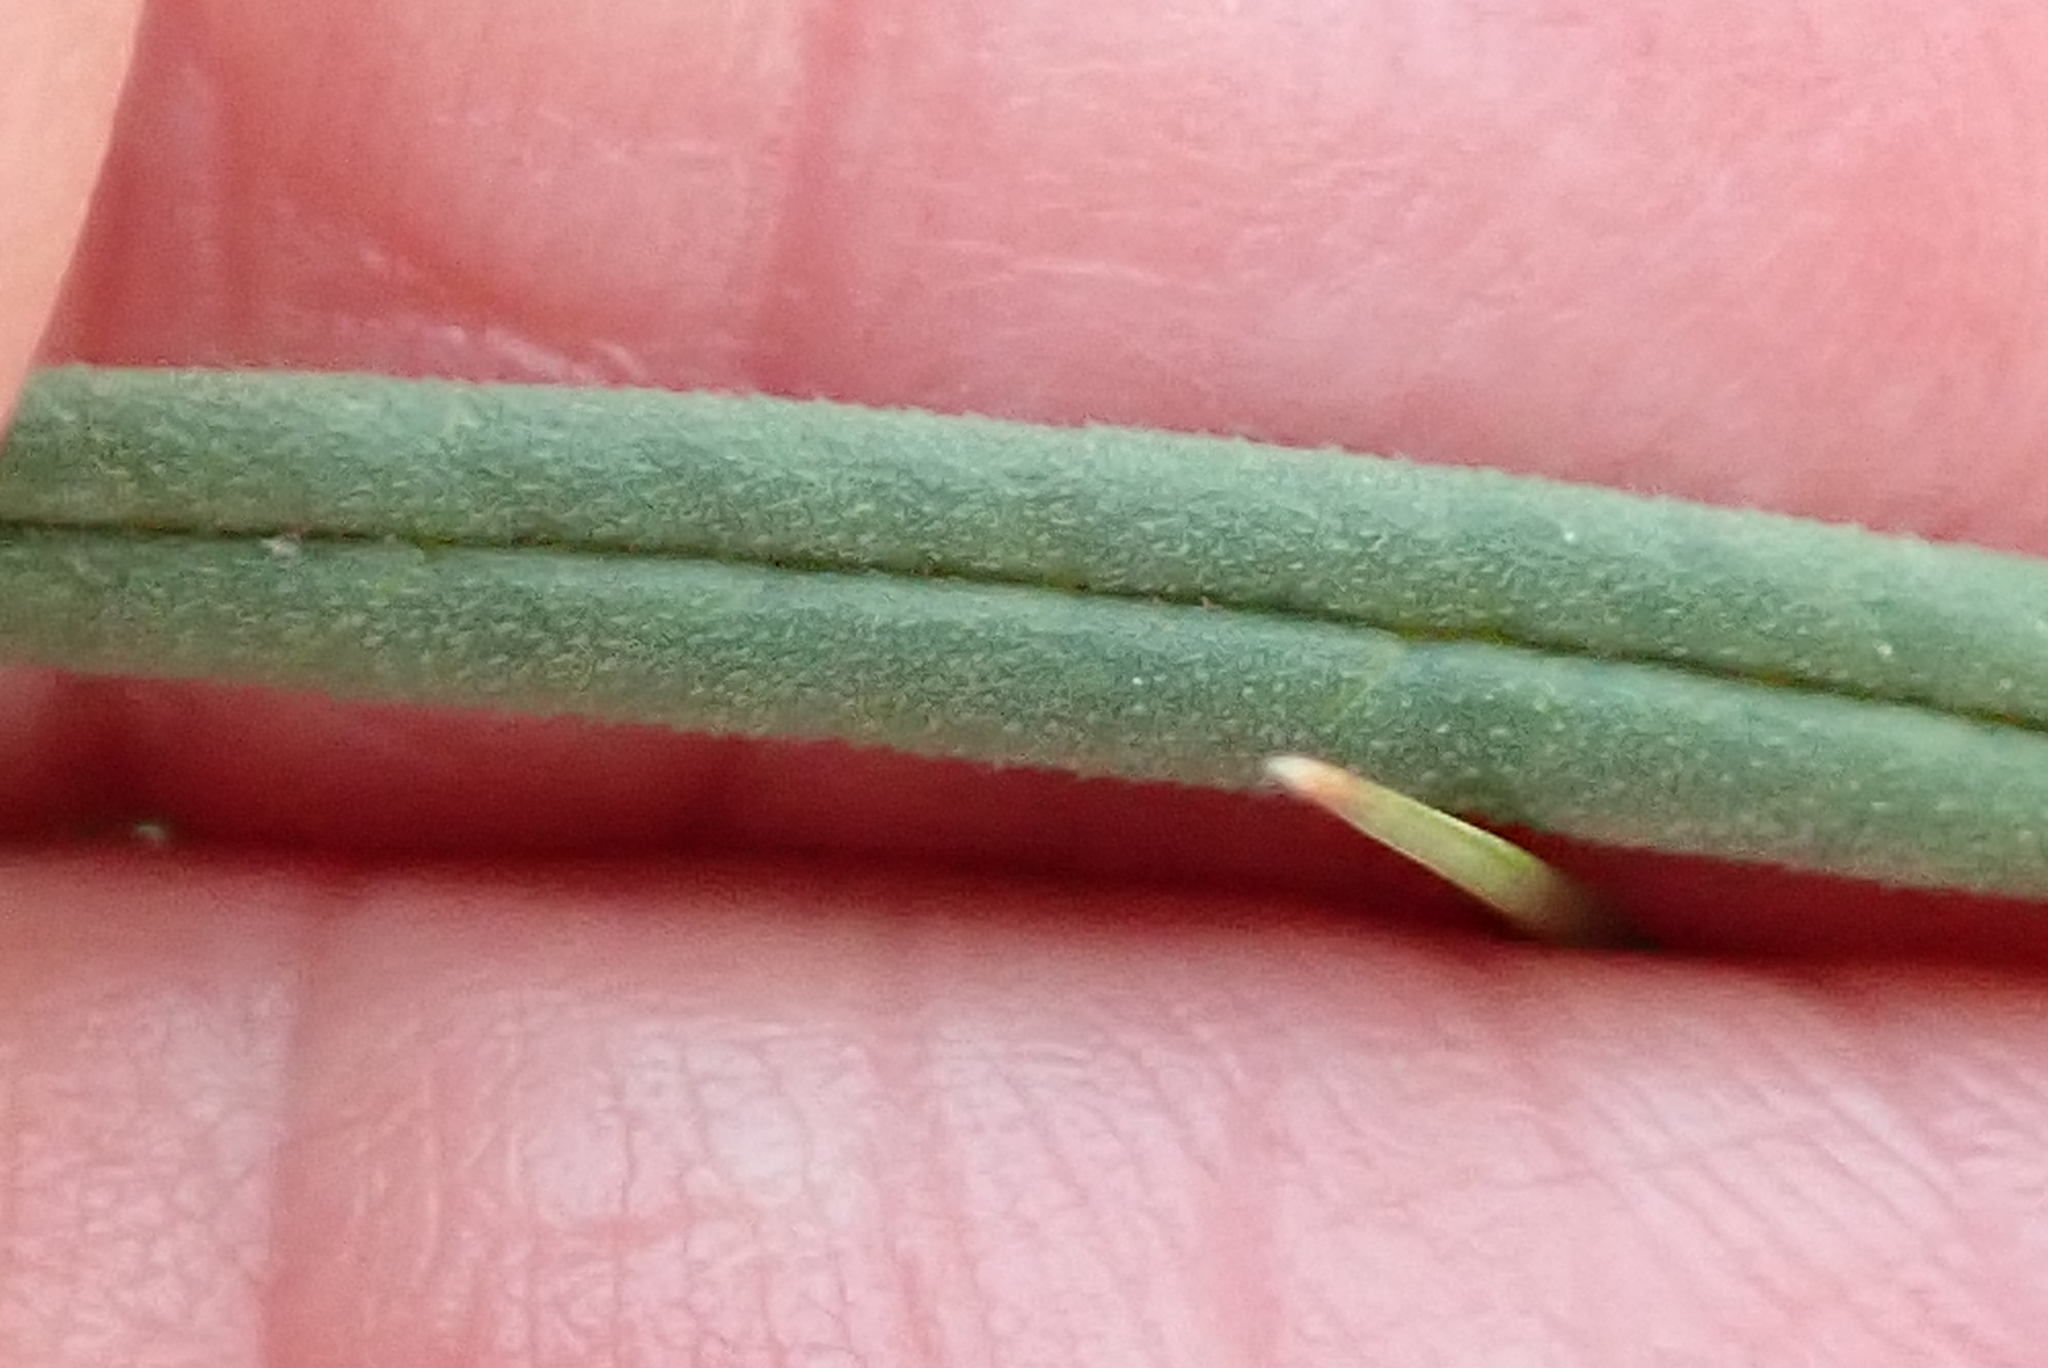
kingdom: Plantae
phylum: Tracheophyta
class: Magnoliopsida
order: Gentianales
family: Apocynaceae
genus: Asclepias
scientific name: Asclepias cucullata
